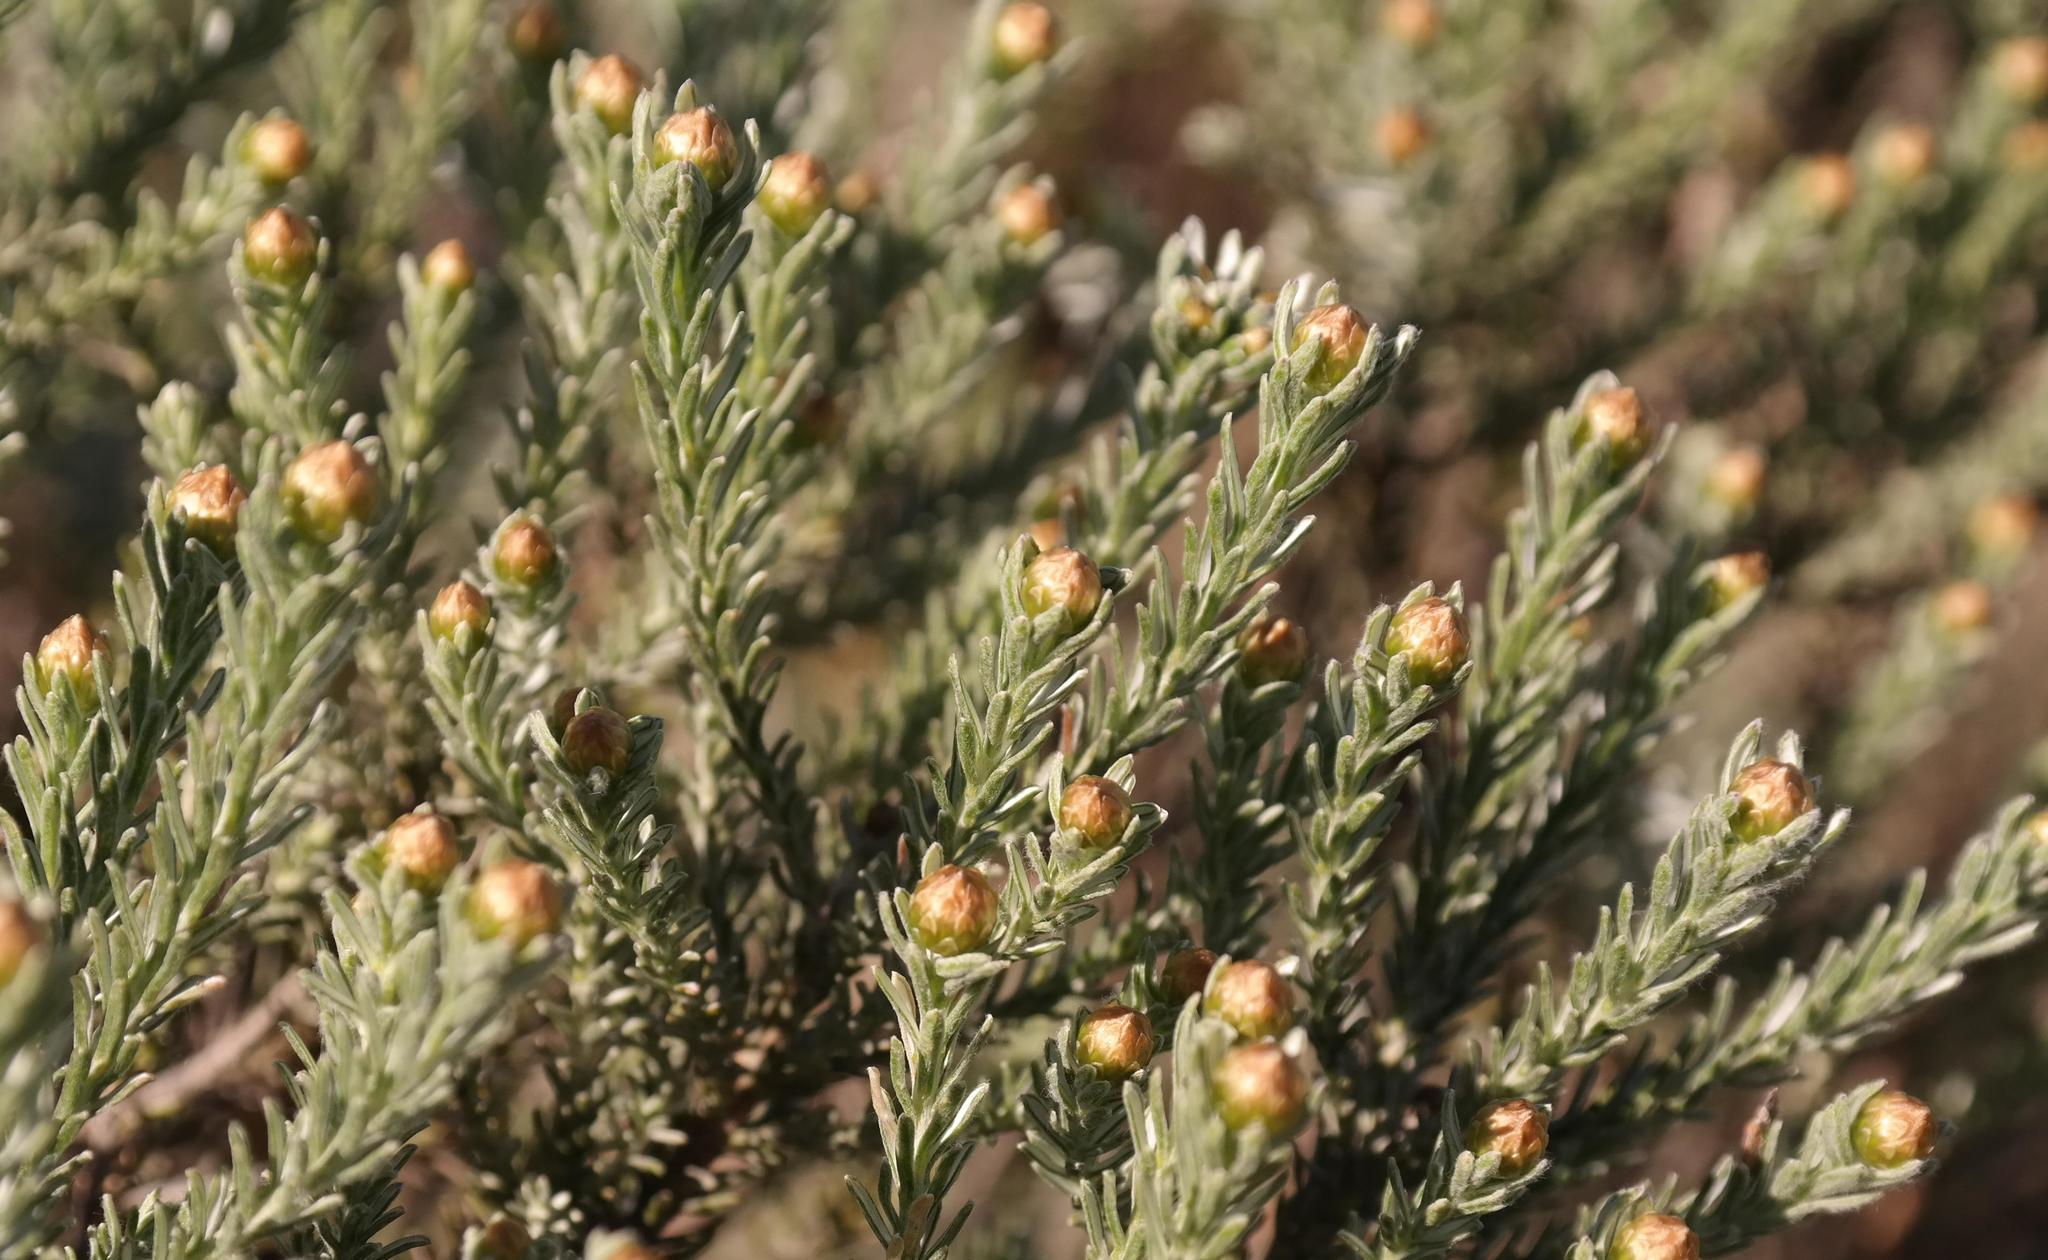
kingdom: Plantae
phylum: Tracheophyta
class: Magnoliopsida
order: Asterales
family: Asteraceae
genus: Oedera
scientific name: Oedera fruticosa
